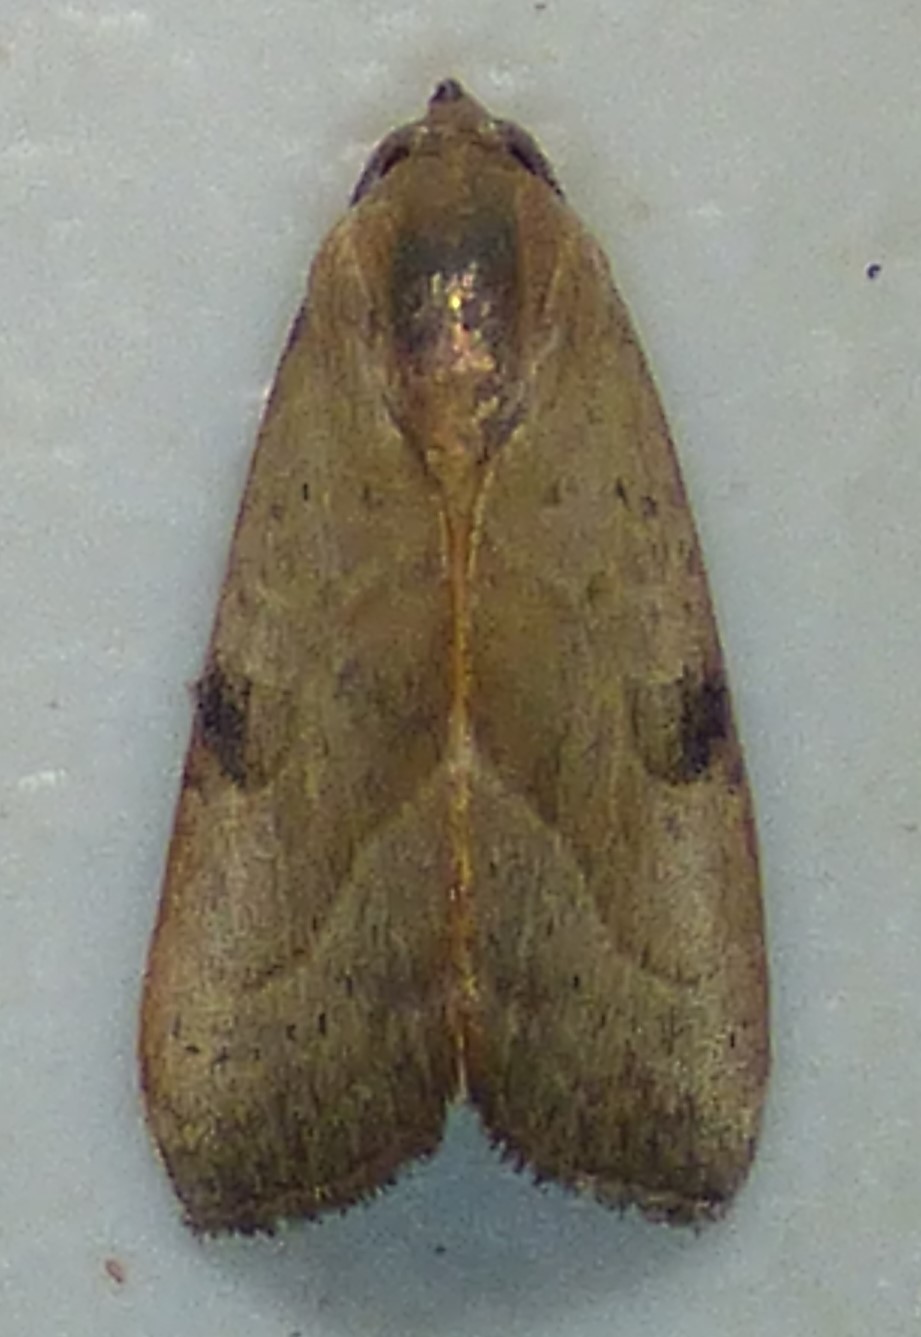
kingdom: Animalia
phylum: Arthropoda
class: Insecta
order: Lepidoptera
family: Noctuidae
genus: Galgula
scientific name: Galgula partita
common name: Wedgeling
